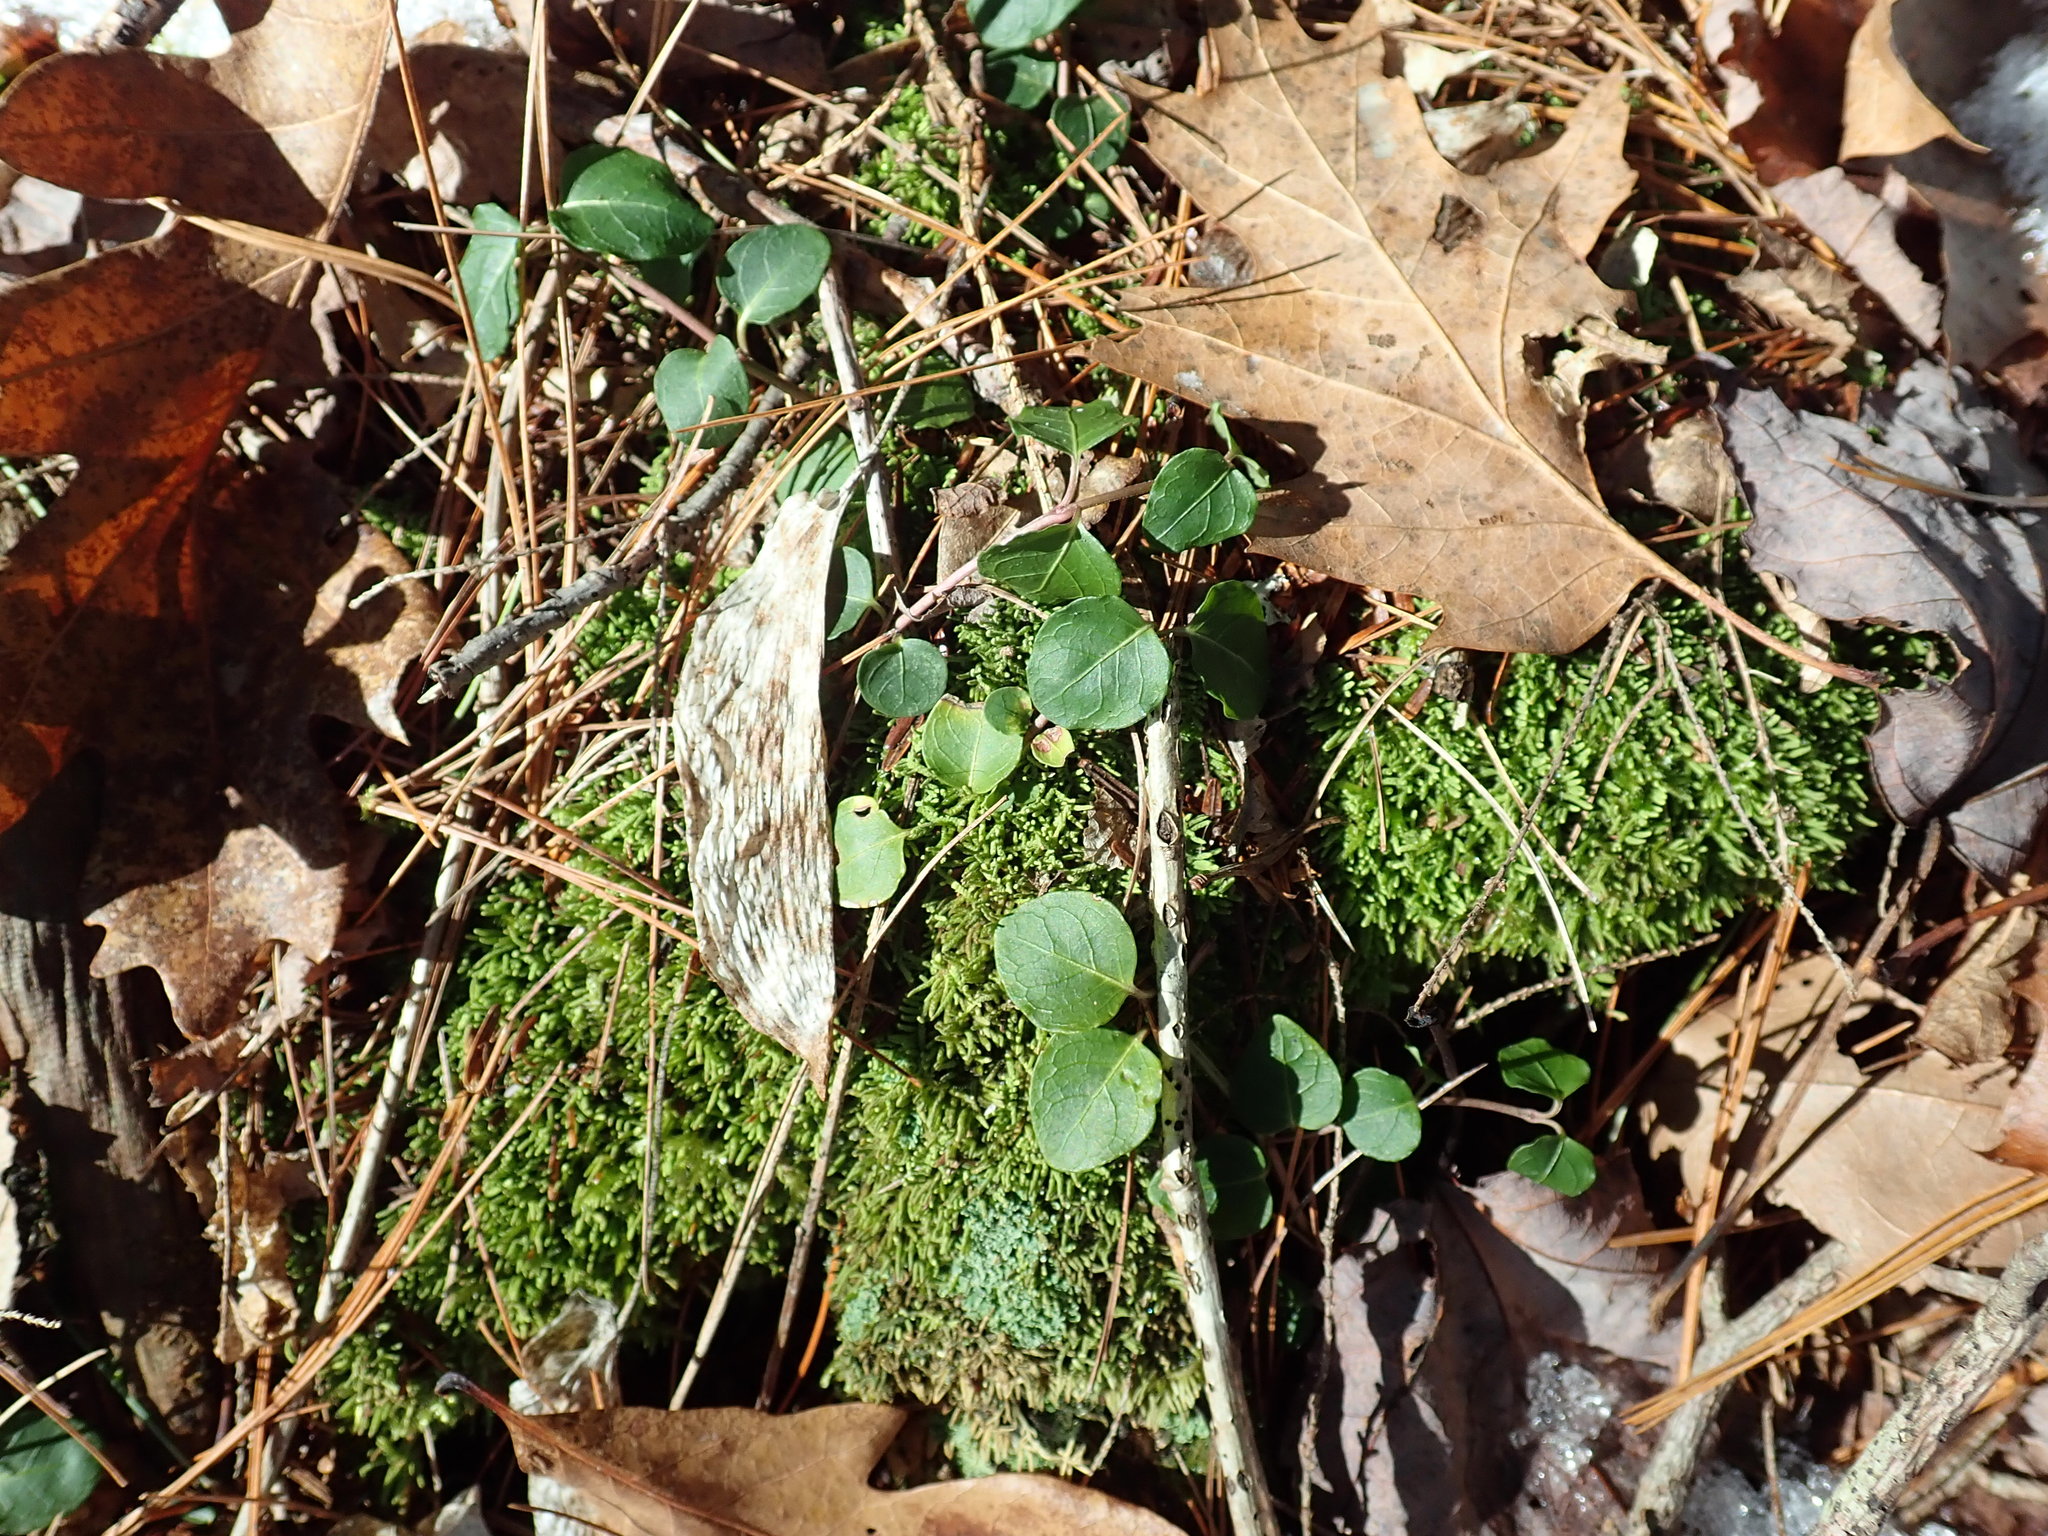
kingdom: Plantae
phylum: Tracheophyta
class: Magnoliopsida
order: Gentianales
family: Rubiaceae
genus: Mitchella
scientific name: Mitchella repens
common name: Partridge-berry
